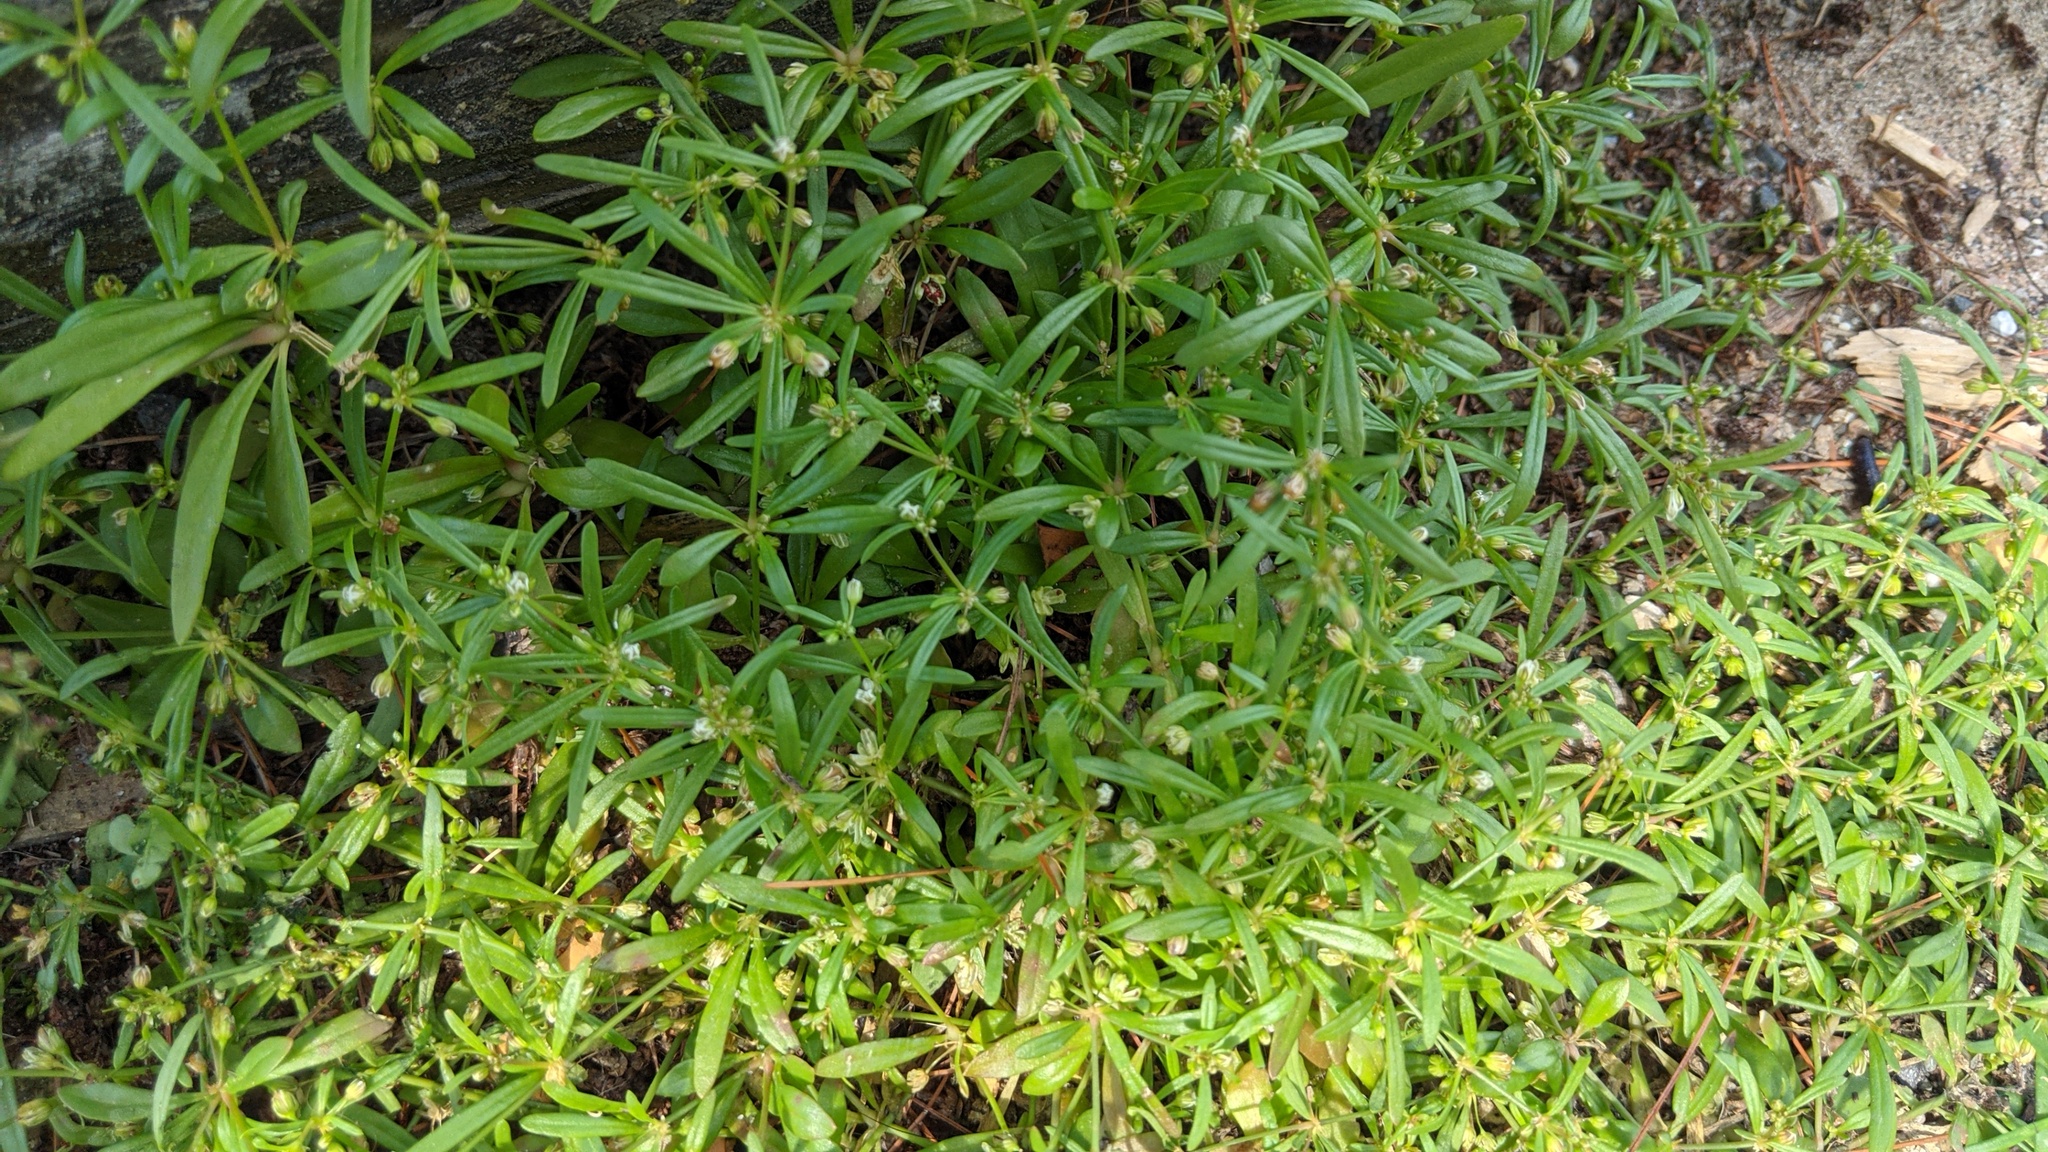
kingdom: Plantae
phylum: Tracheophyta
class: Magnoliopsida
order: Caryophyllales
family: Molluginaceae
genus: Mollugo
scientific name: Mollugo verticillata
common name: Green carpetweed
